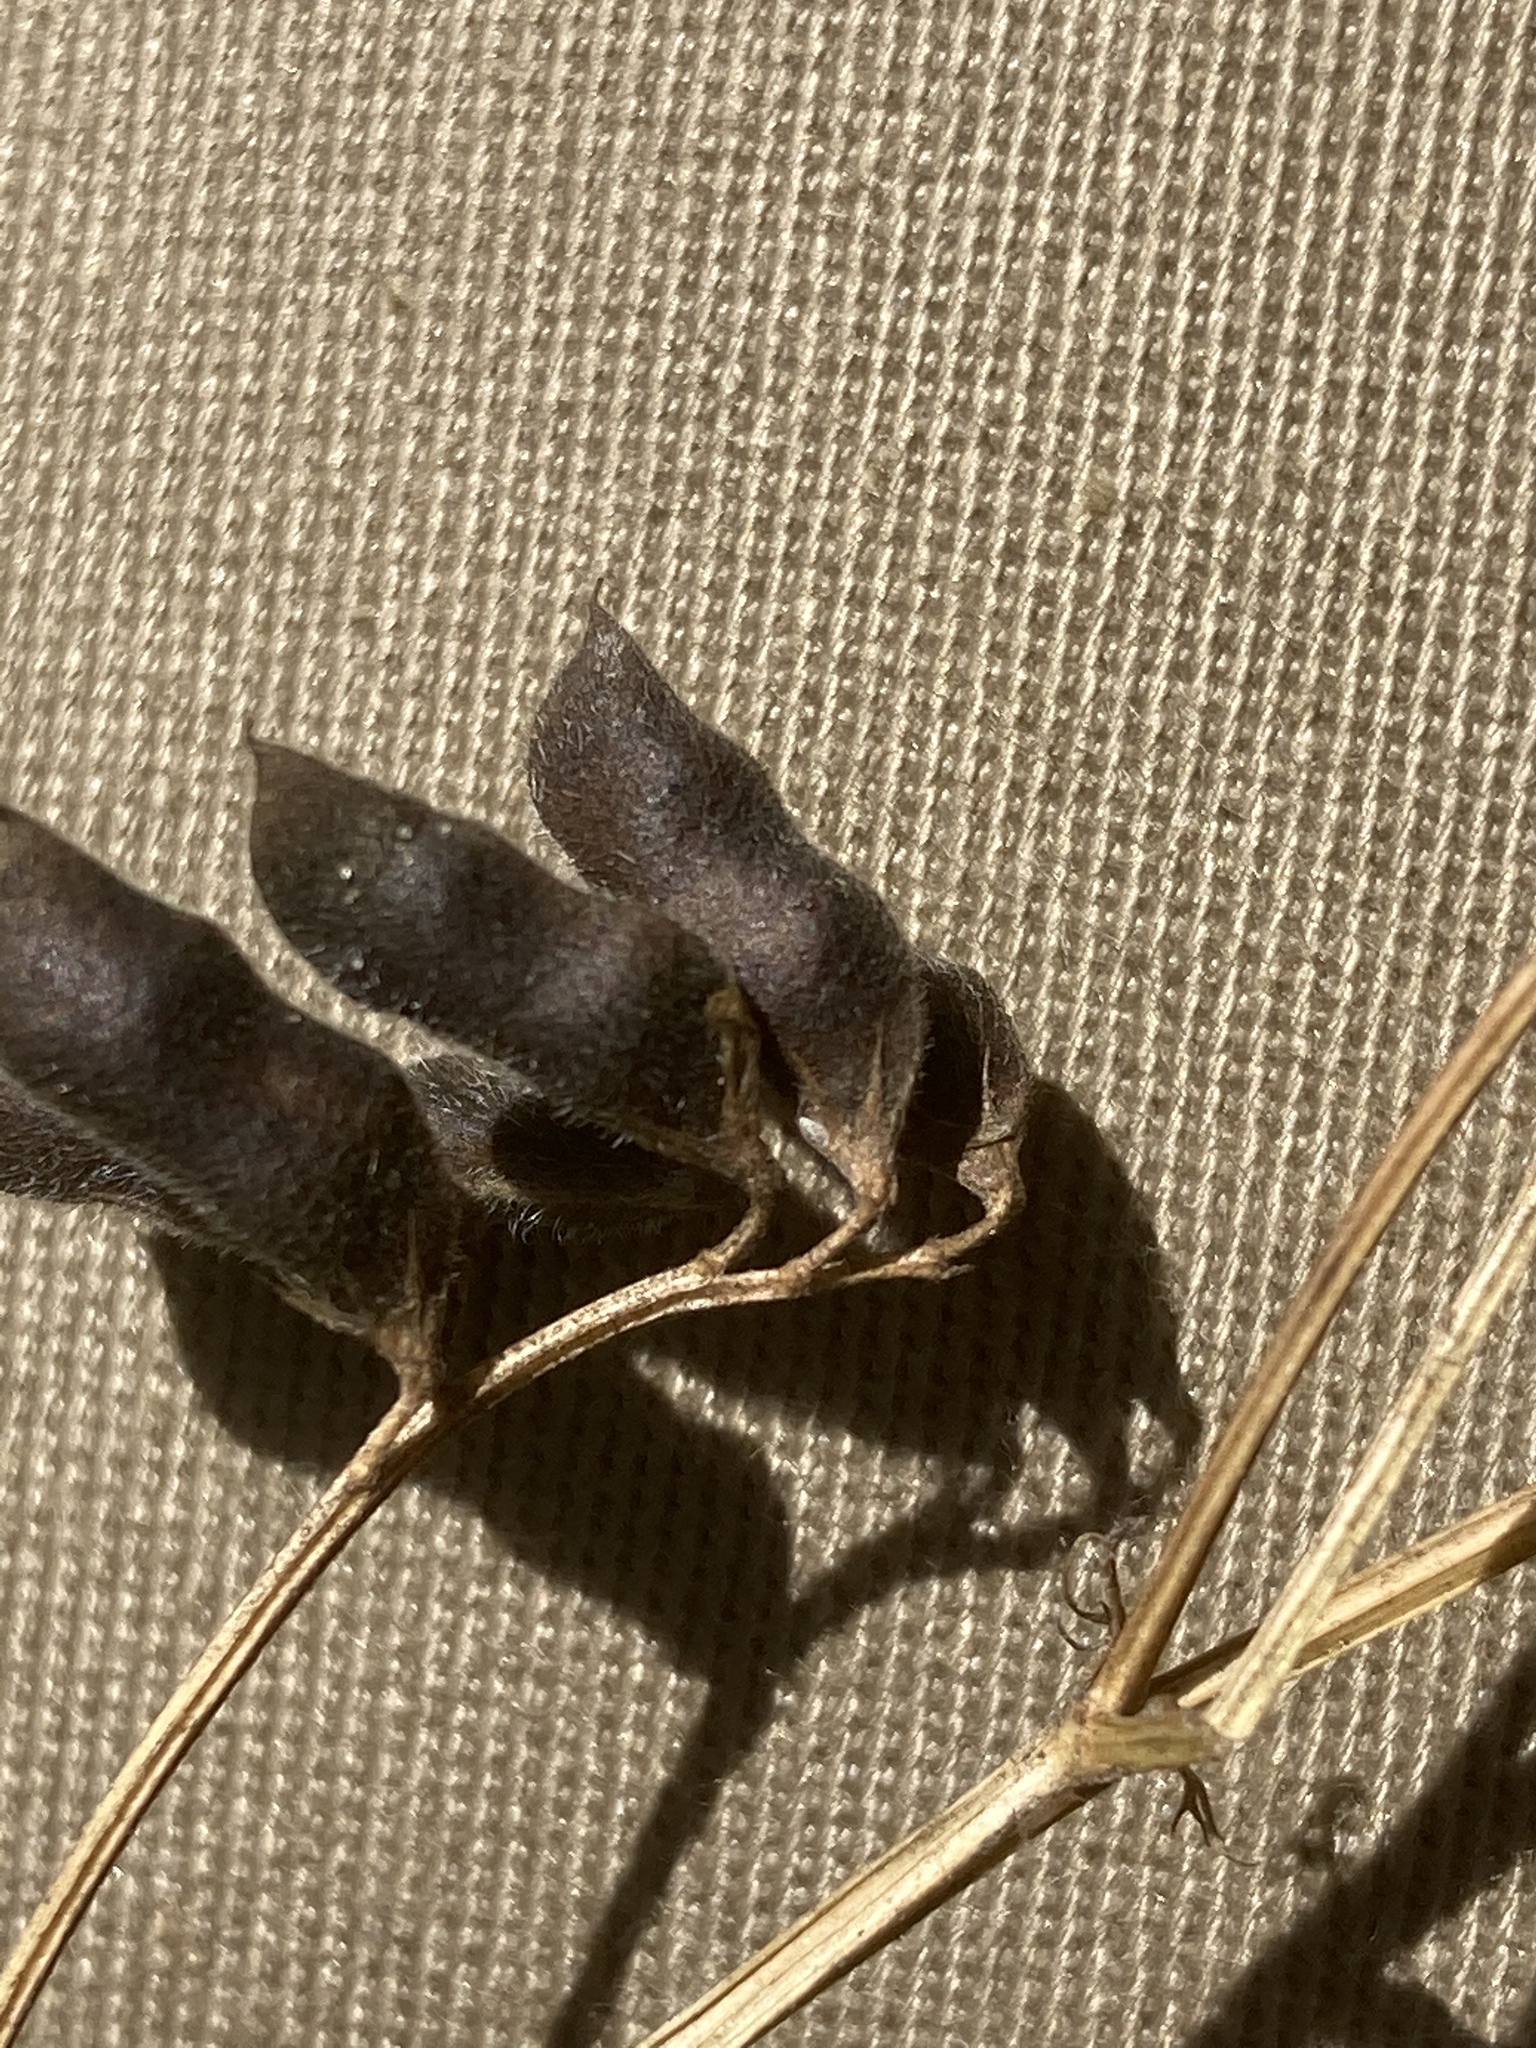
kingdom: Plantae
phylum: Tracheophyta
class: Magnoliopsida
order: Fabales
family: Fabaceae
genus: Vicia
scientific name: Vicia hirsuta
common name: Tiny vetch
